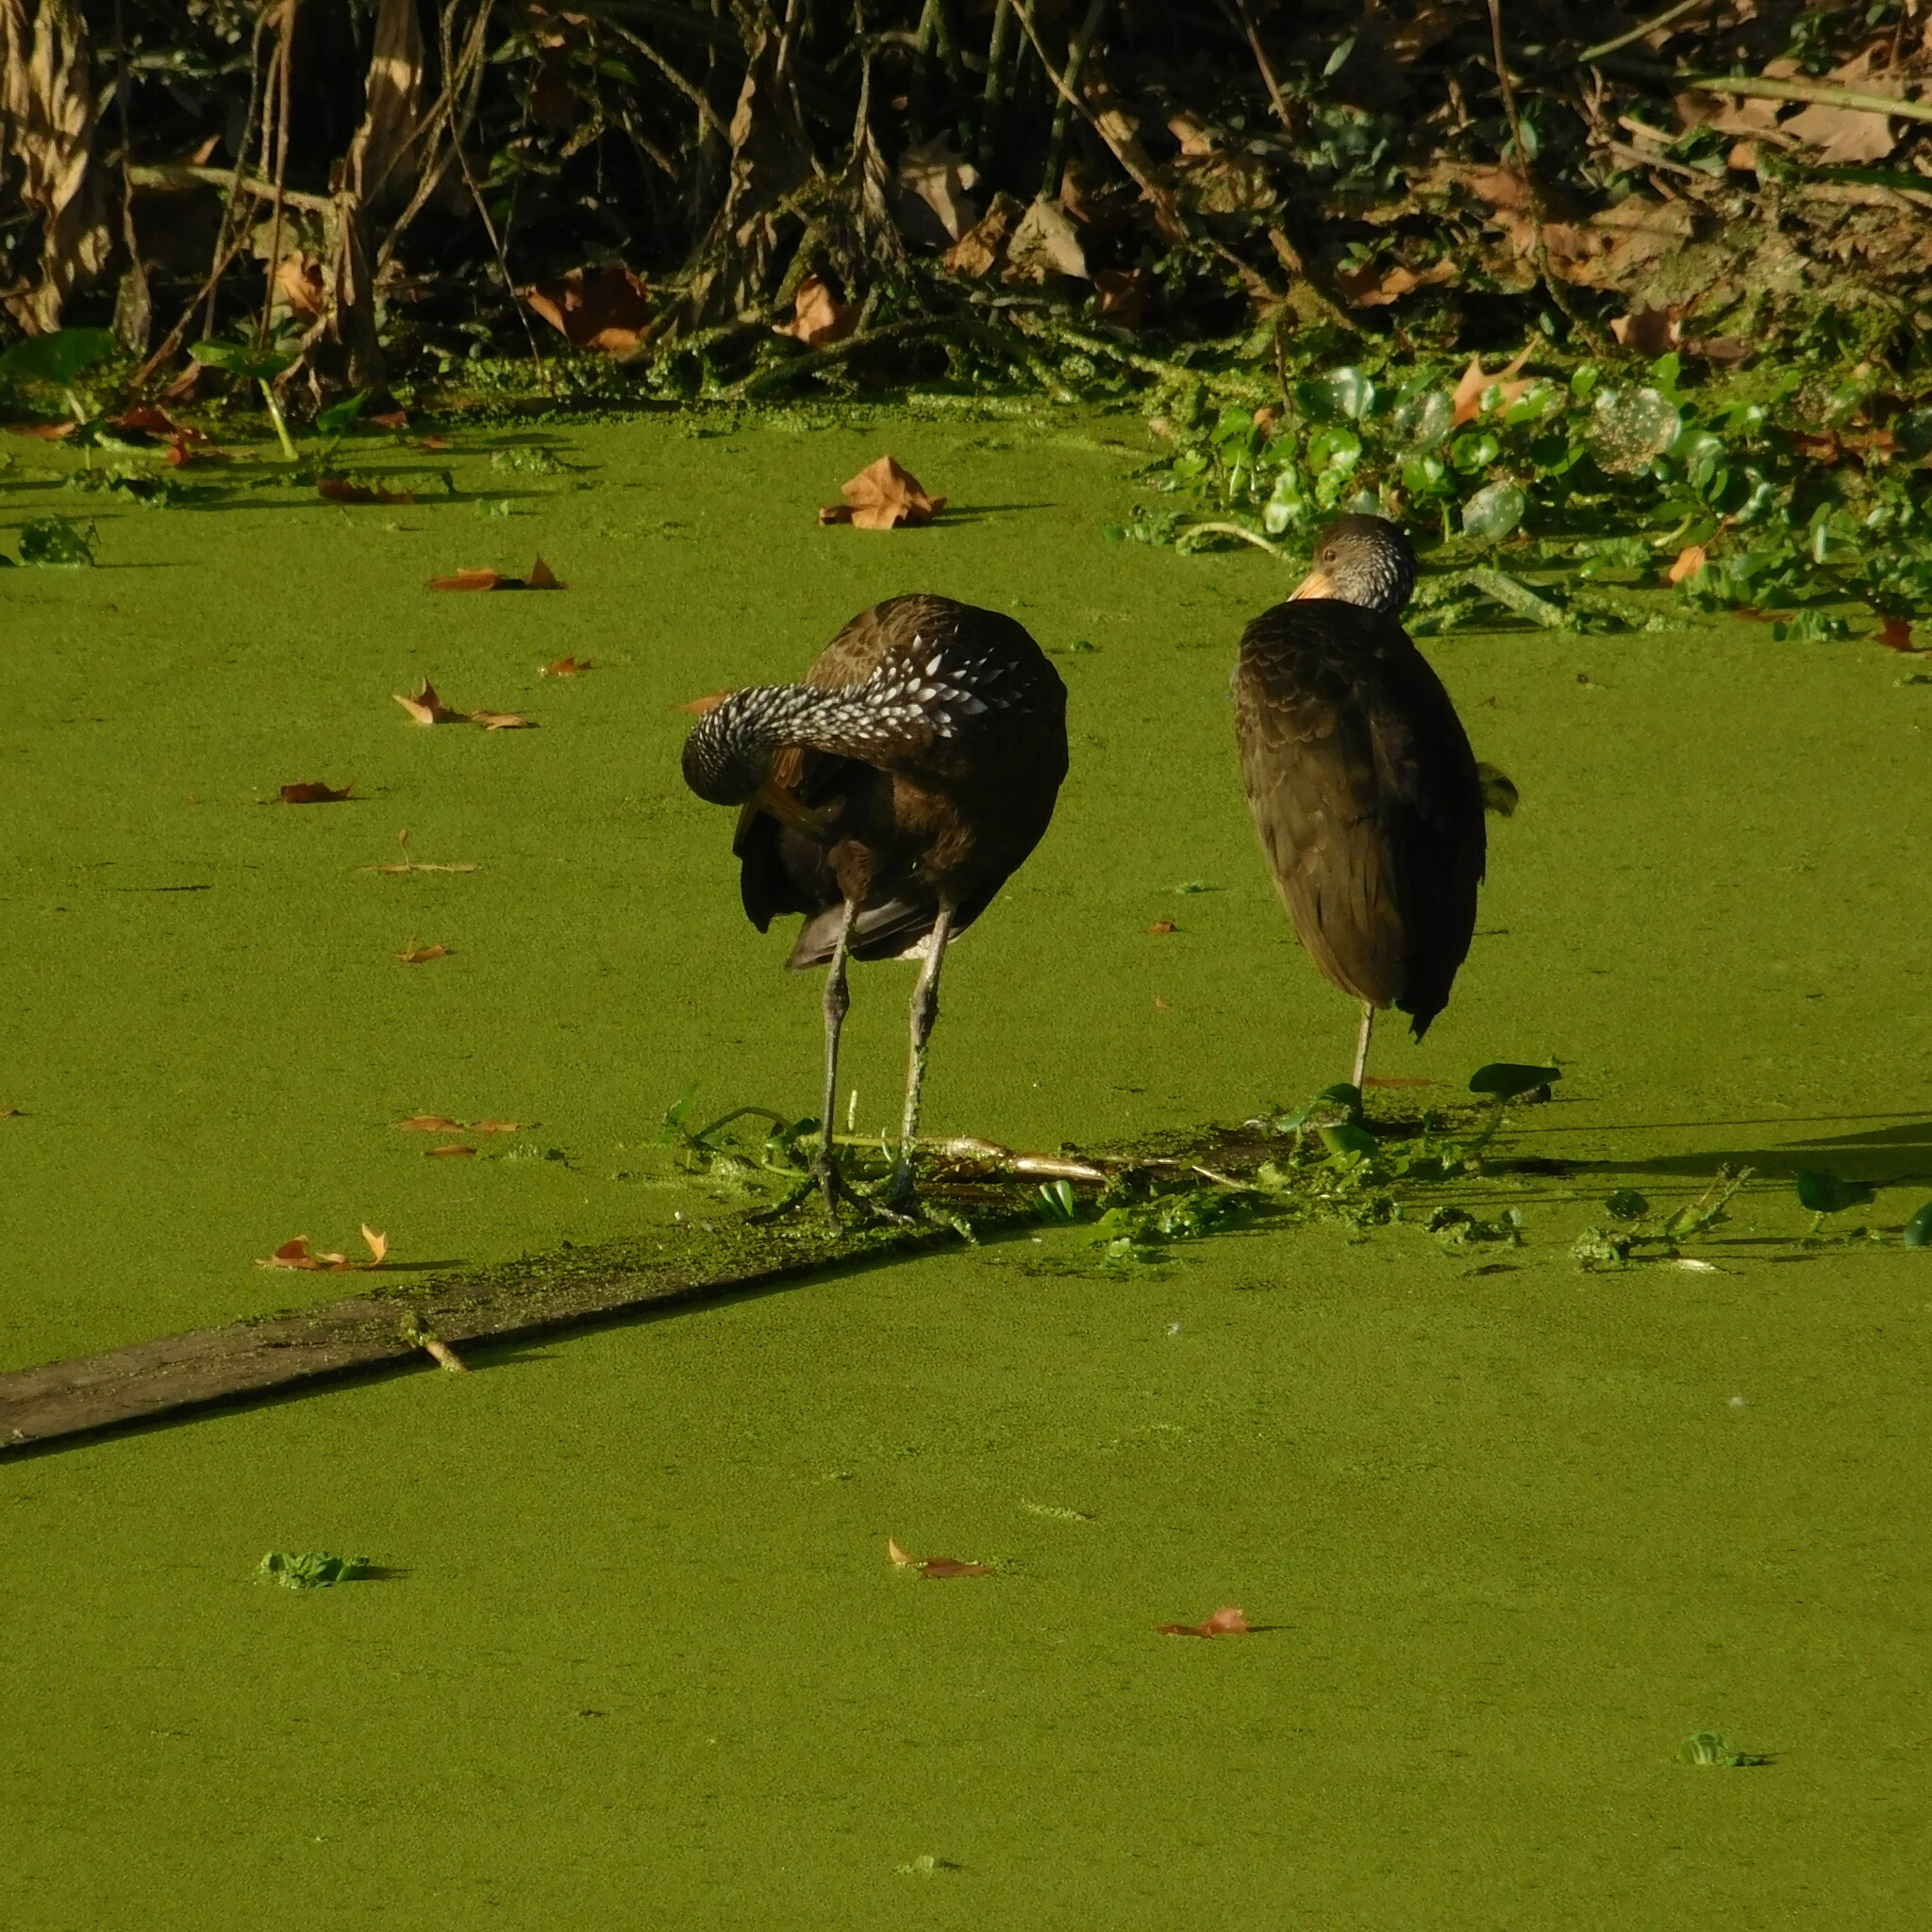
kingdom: Animalia
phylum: Chordata
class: Aves
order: Gruiformes
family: Aramidae
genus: Aramus
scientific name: Aramus guarauna
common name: Limpkin
